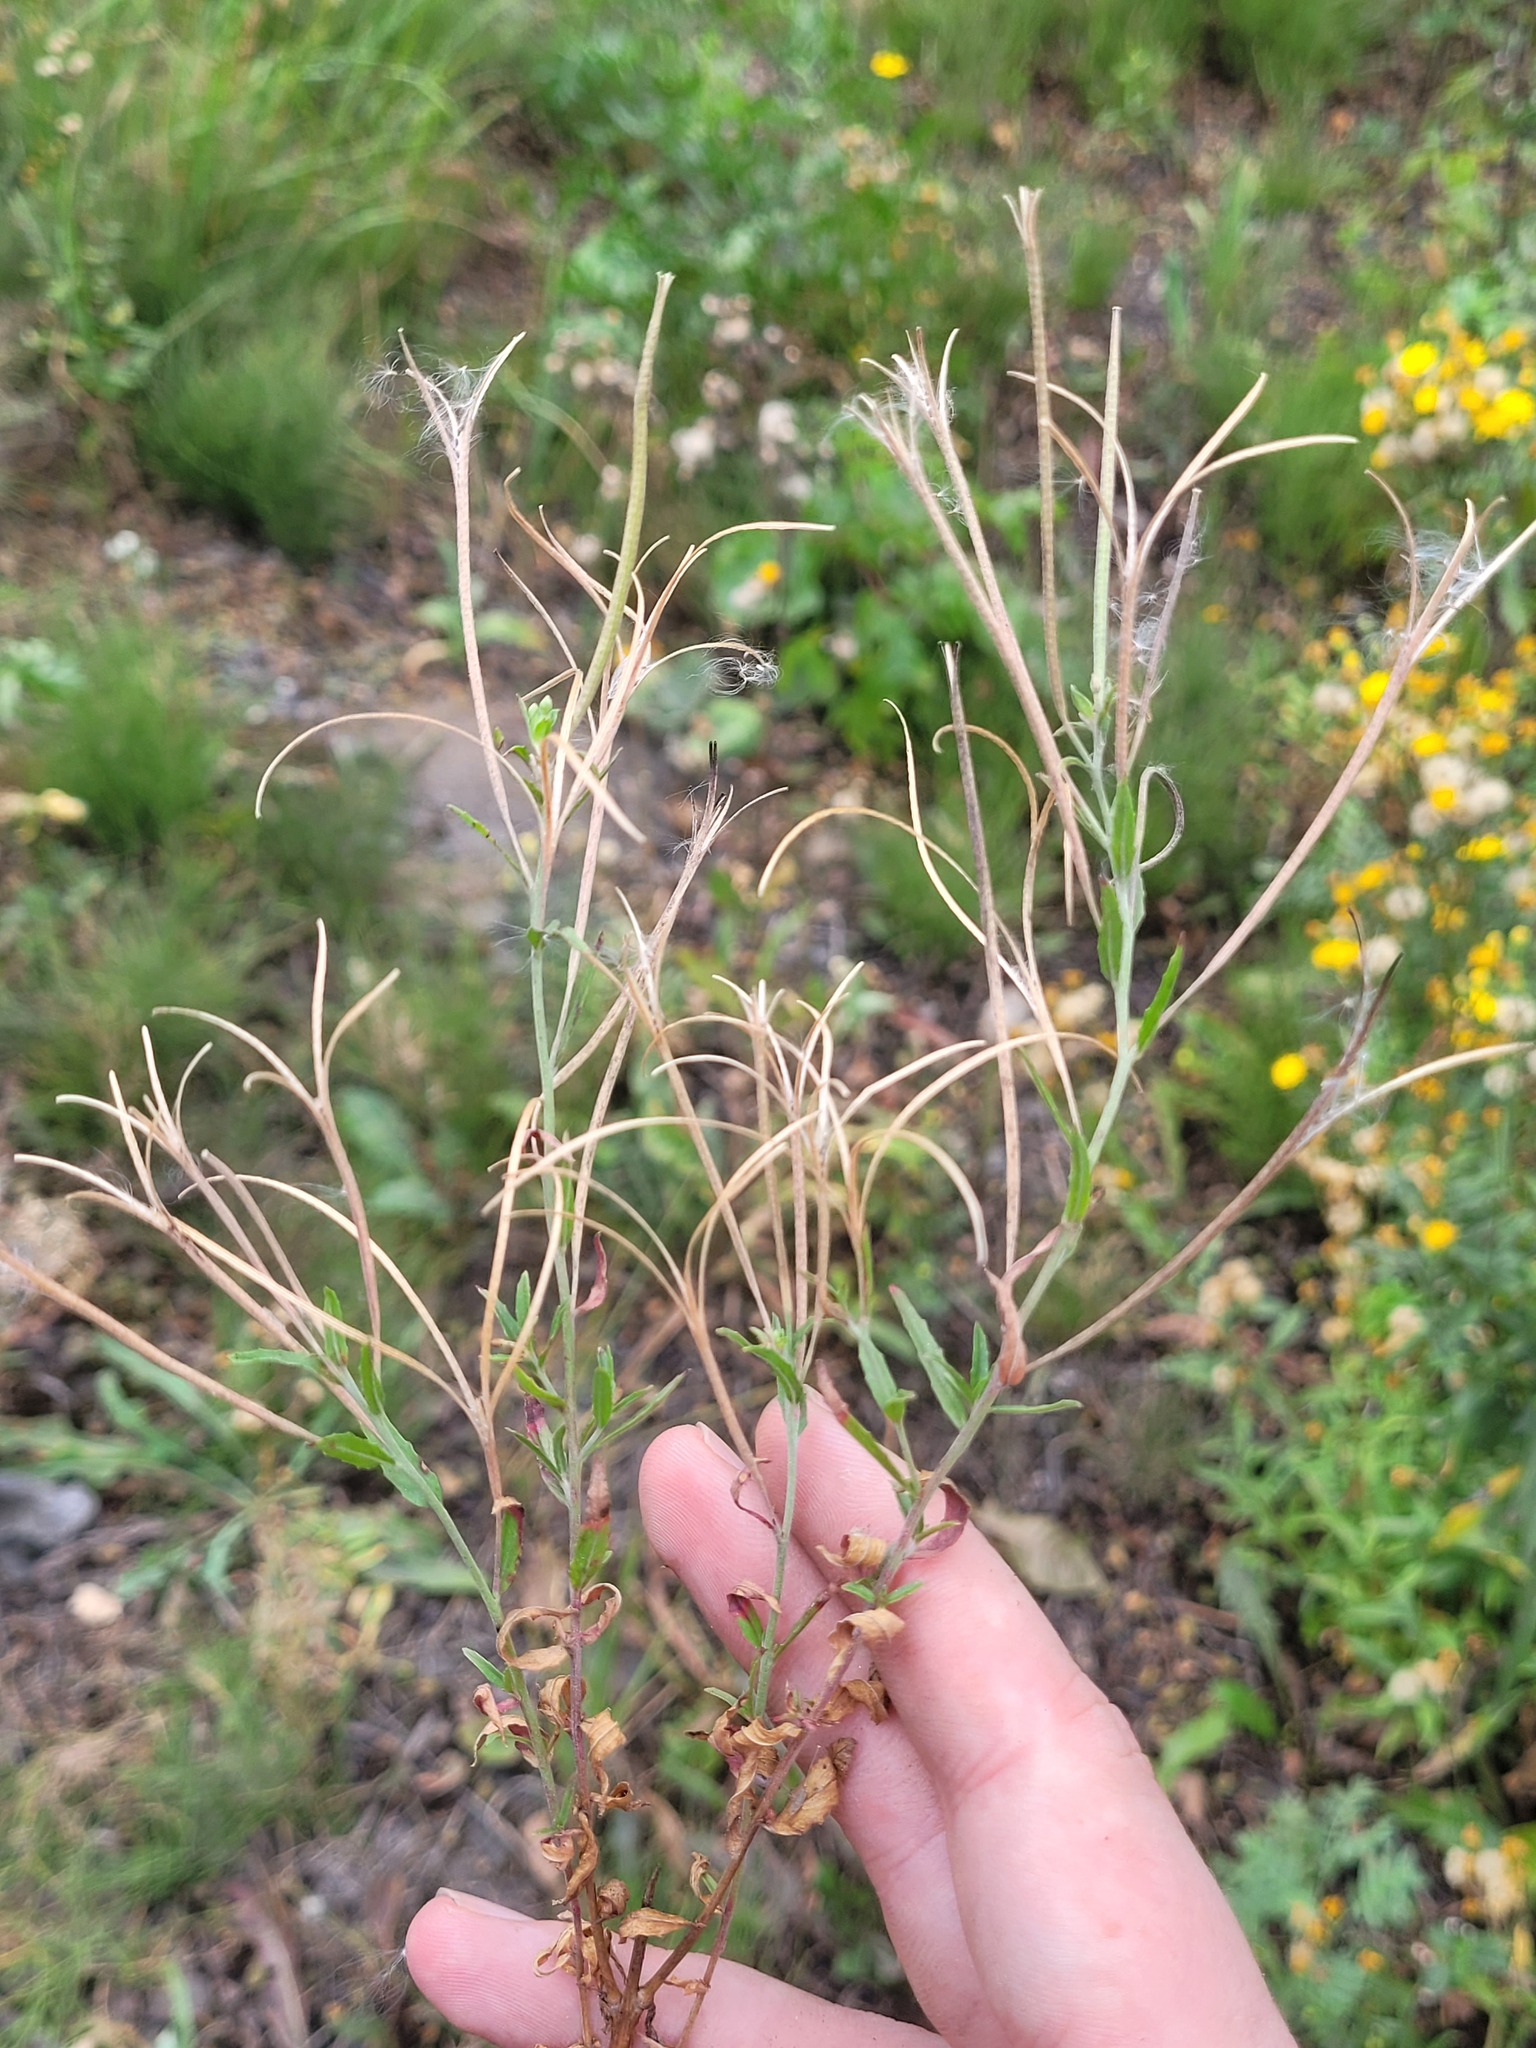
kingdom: Plantae
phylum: Tracheophyta
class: Magnoliopsida
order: Myrtales
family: Onagraceae
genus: Epilobium
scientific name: Epilobium tetragonum
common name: Square-stemmed willowherb
